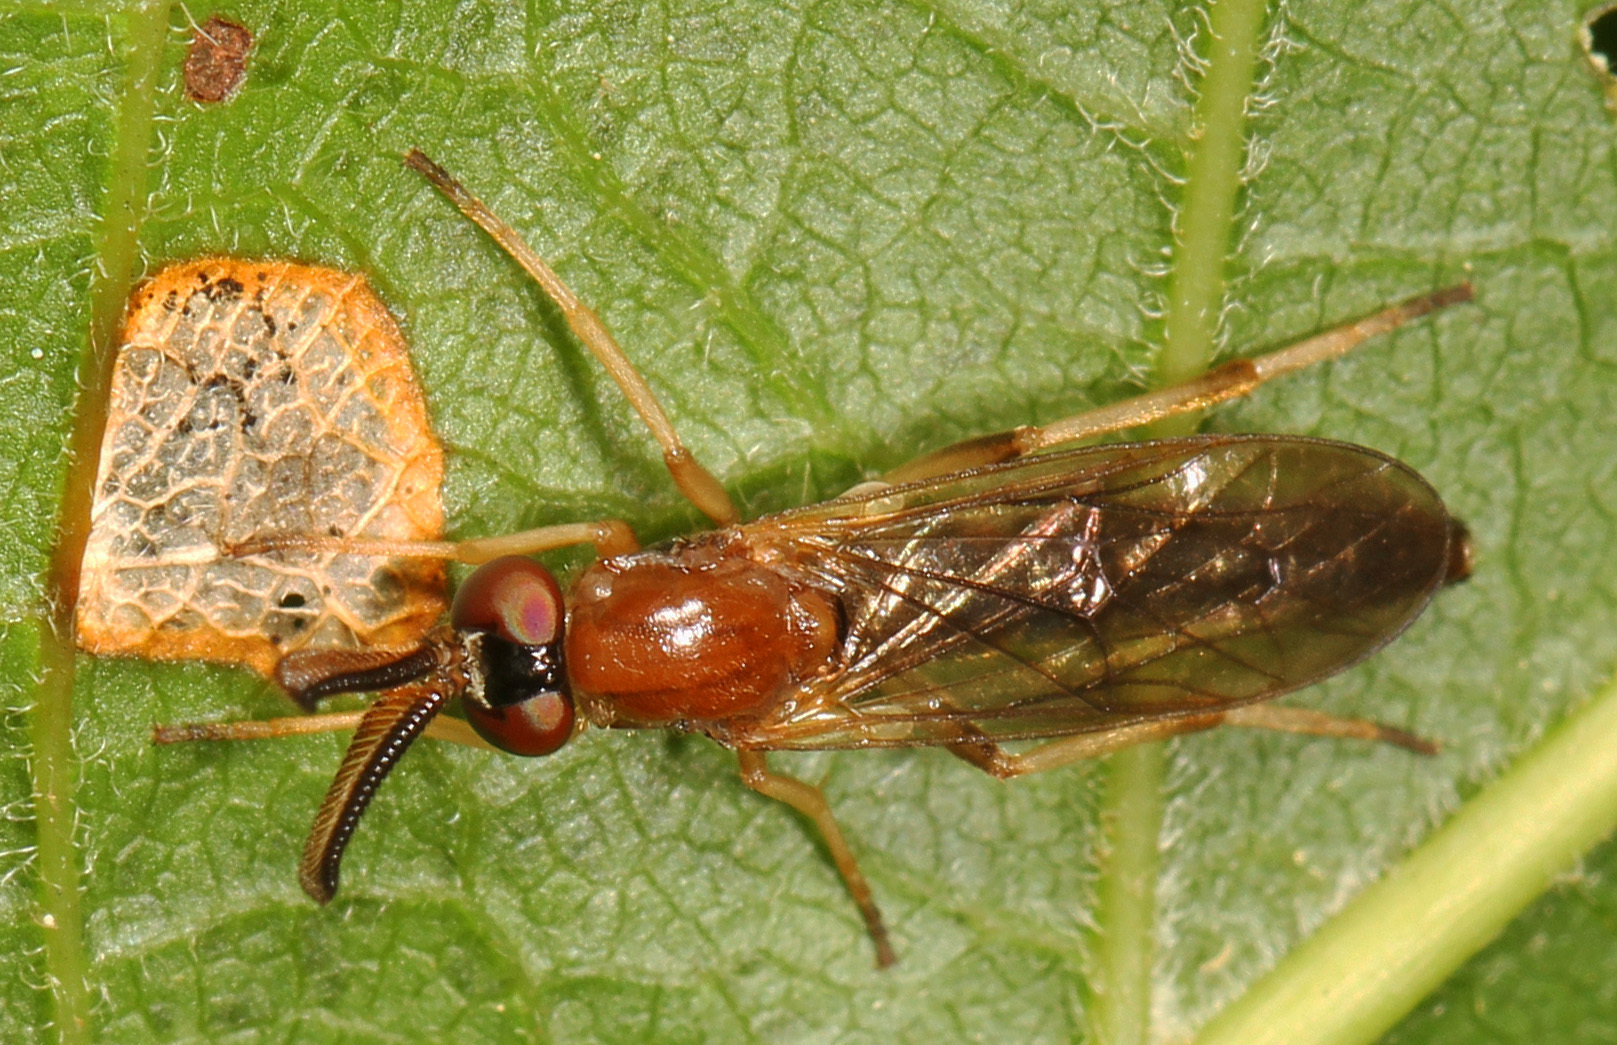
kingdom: Animalia
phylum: Arthropoda
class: Insecta
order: Diptera
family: Xylophagidae
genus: Rachicerus
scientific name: Rachicerus obscuripennis
